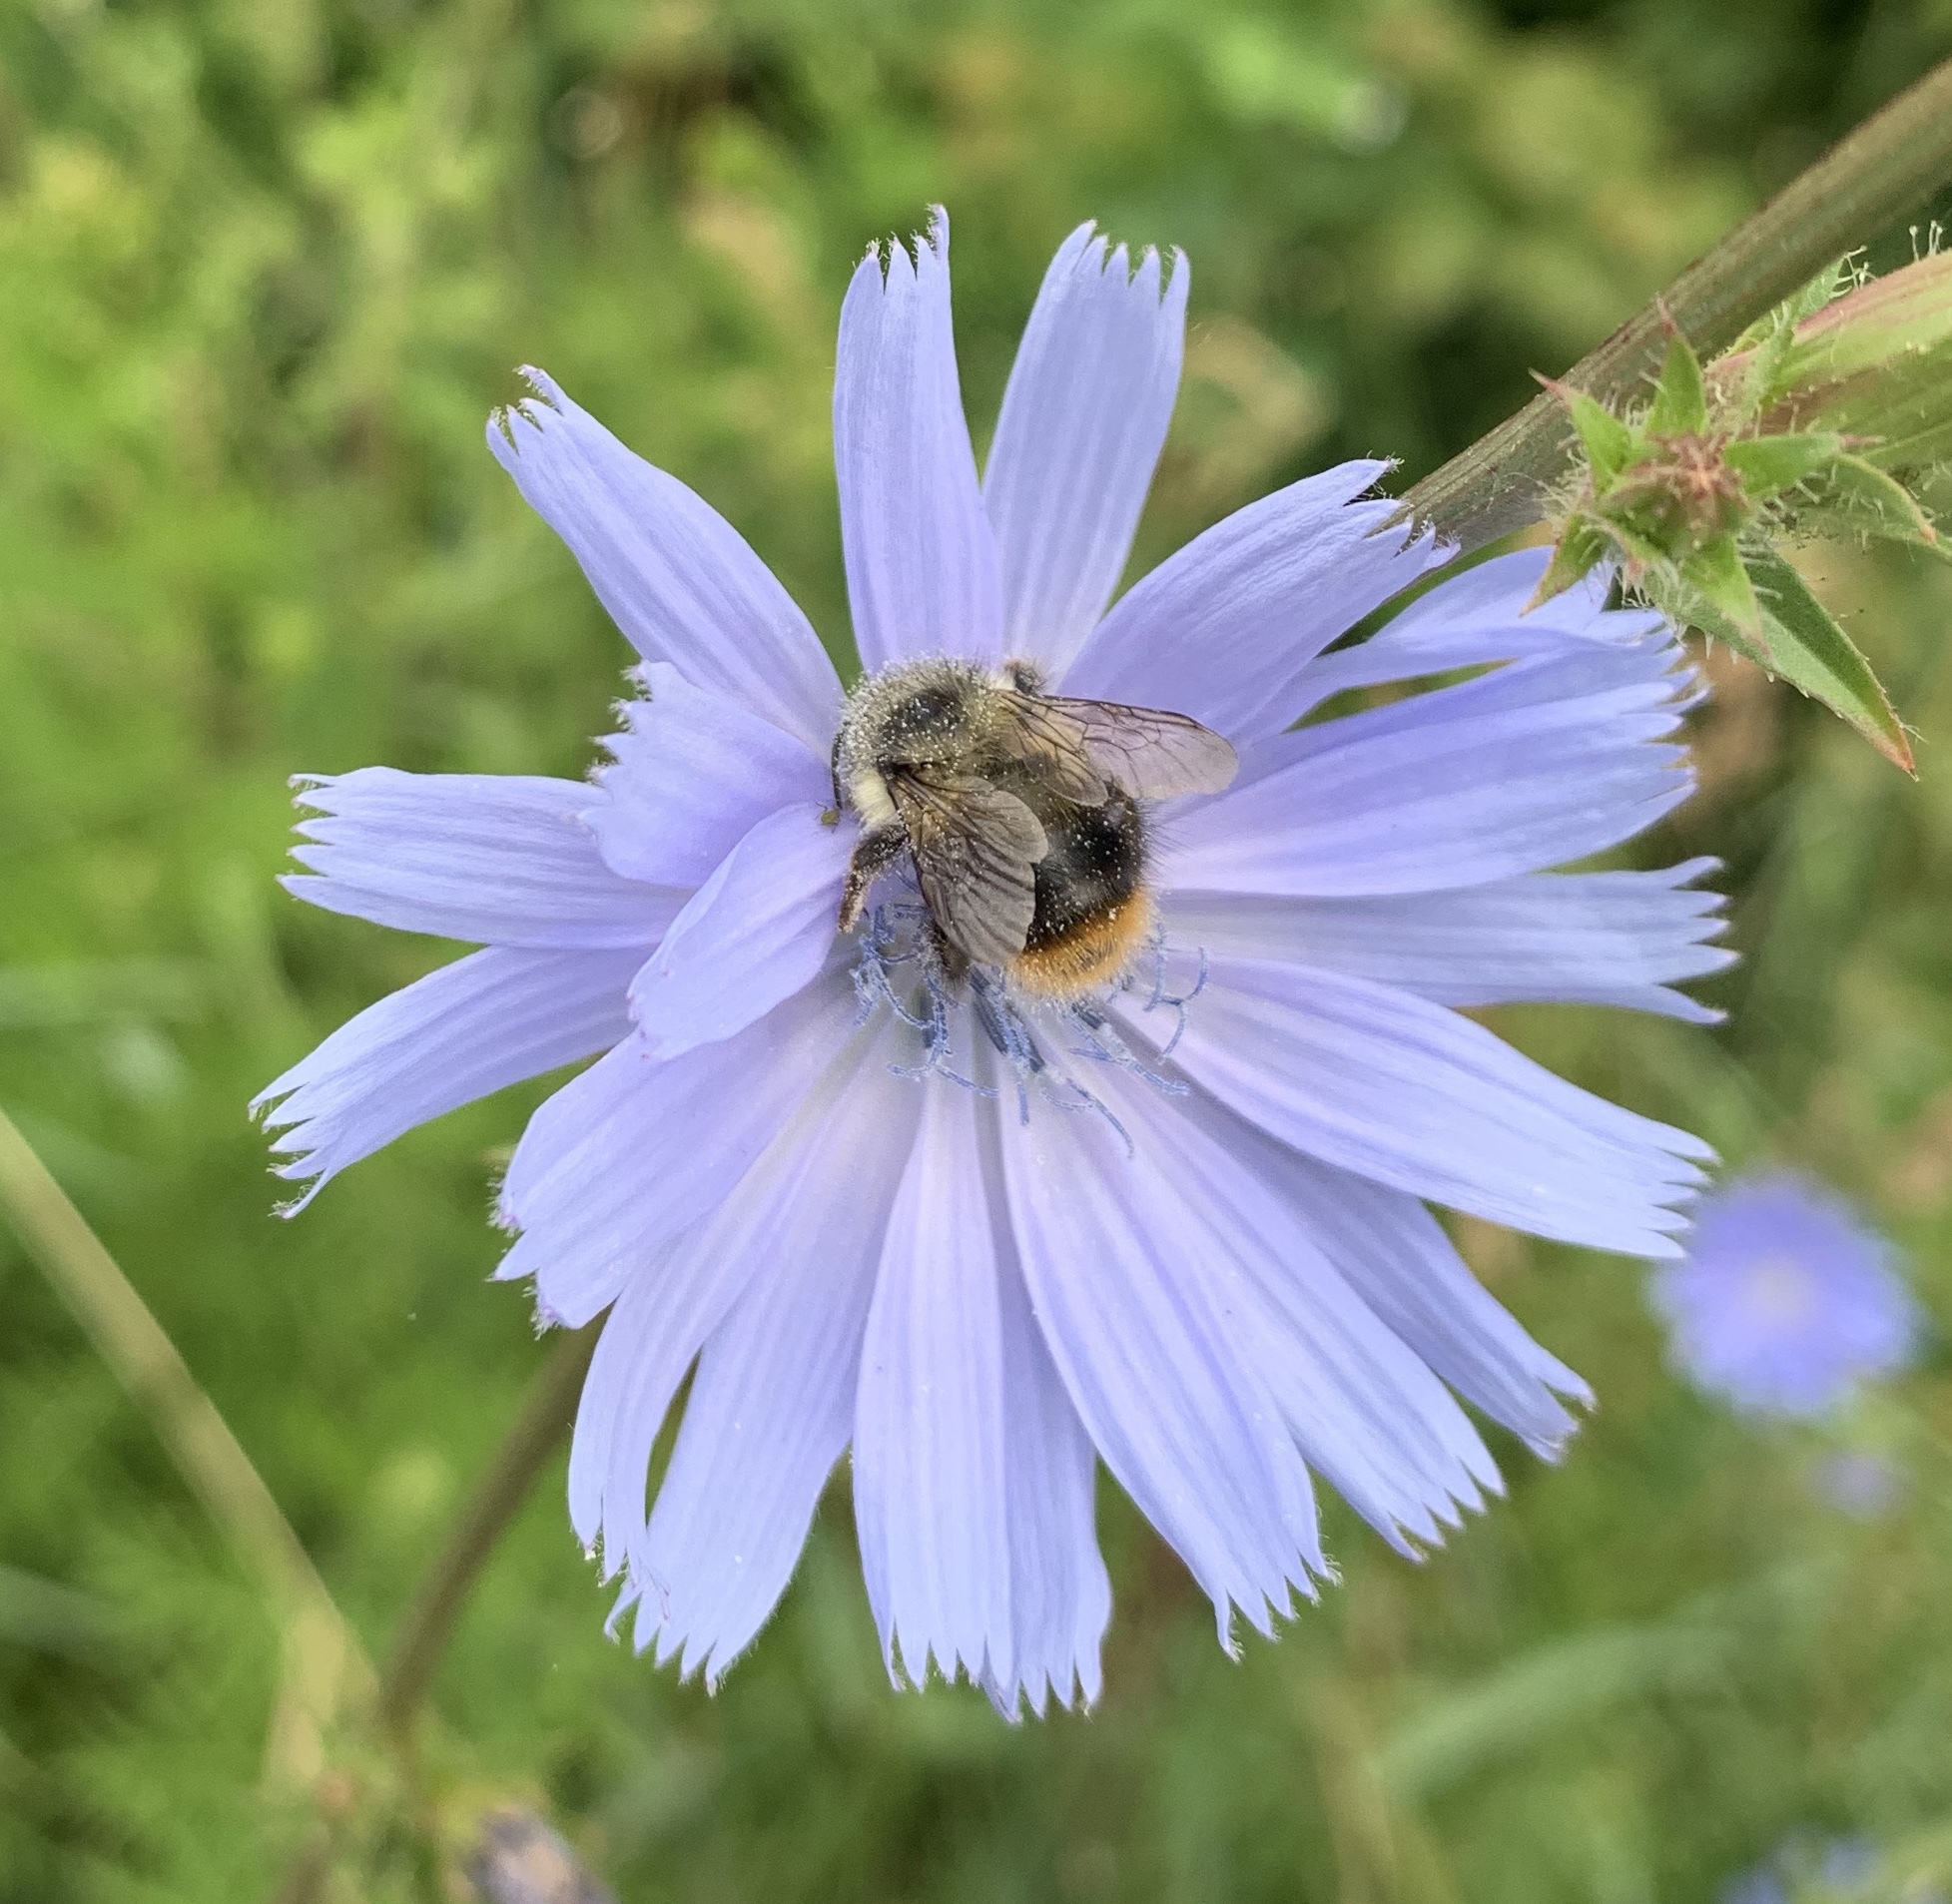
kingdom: Animalia
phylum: Arthropoda
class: Insecta
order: Hymenoptera
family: Apidae
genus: Bombus
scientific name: Bombus mixtus
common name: Fuzzy-horned bumble bee
